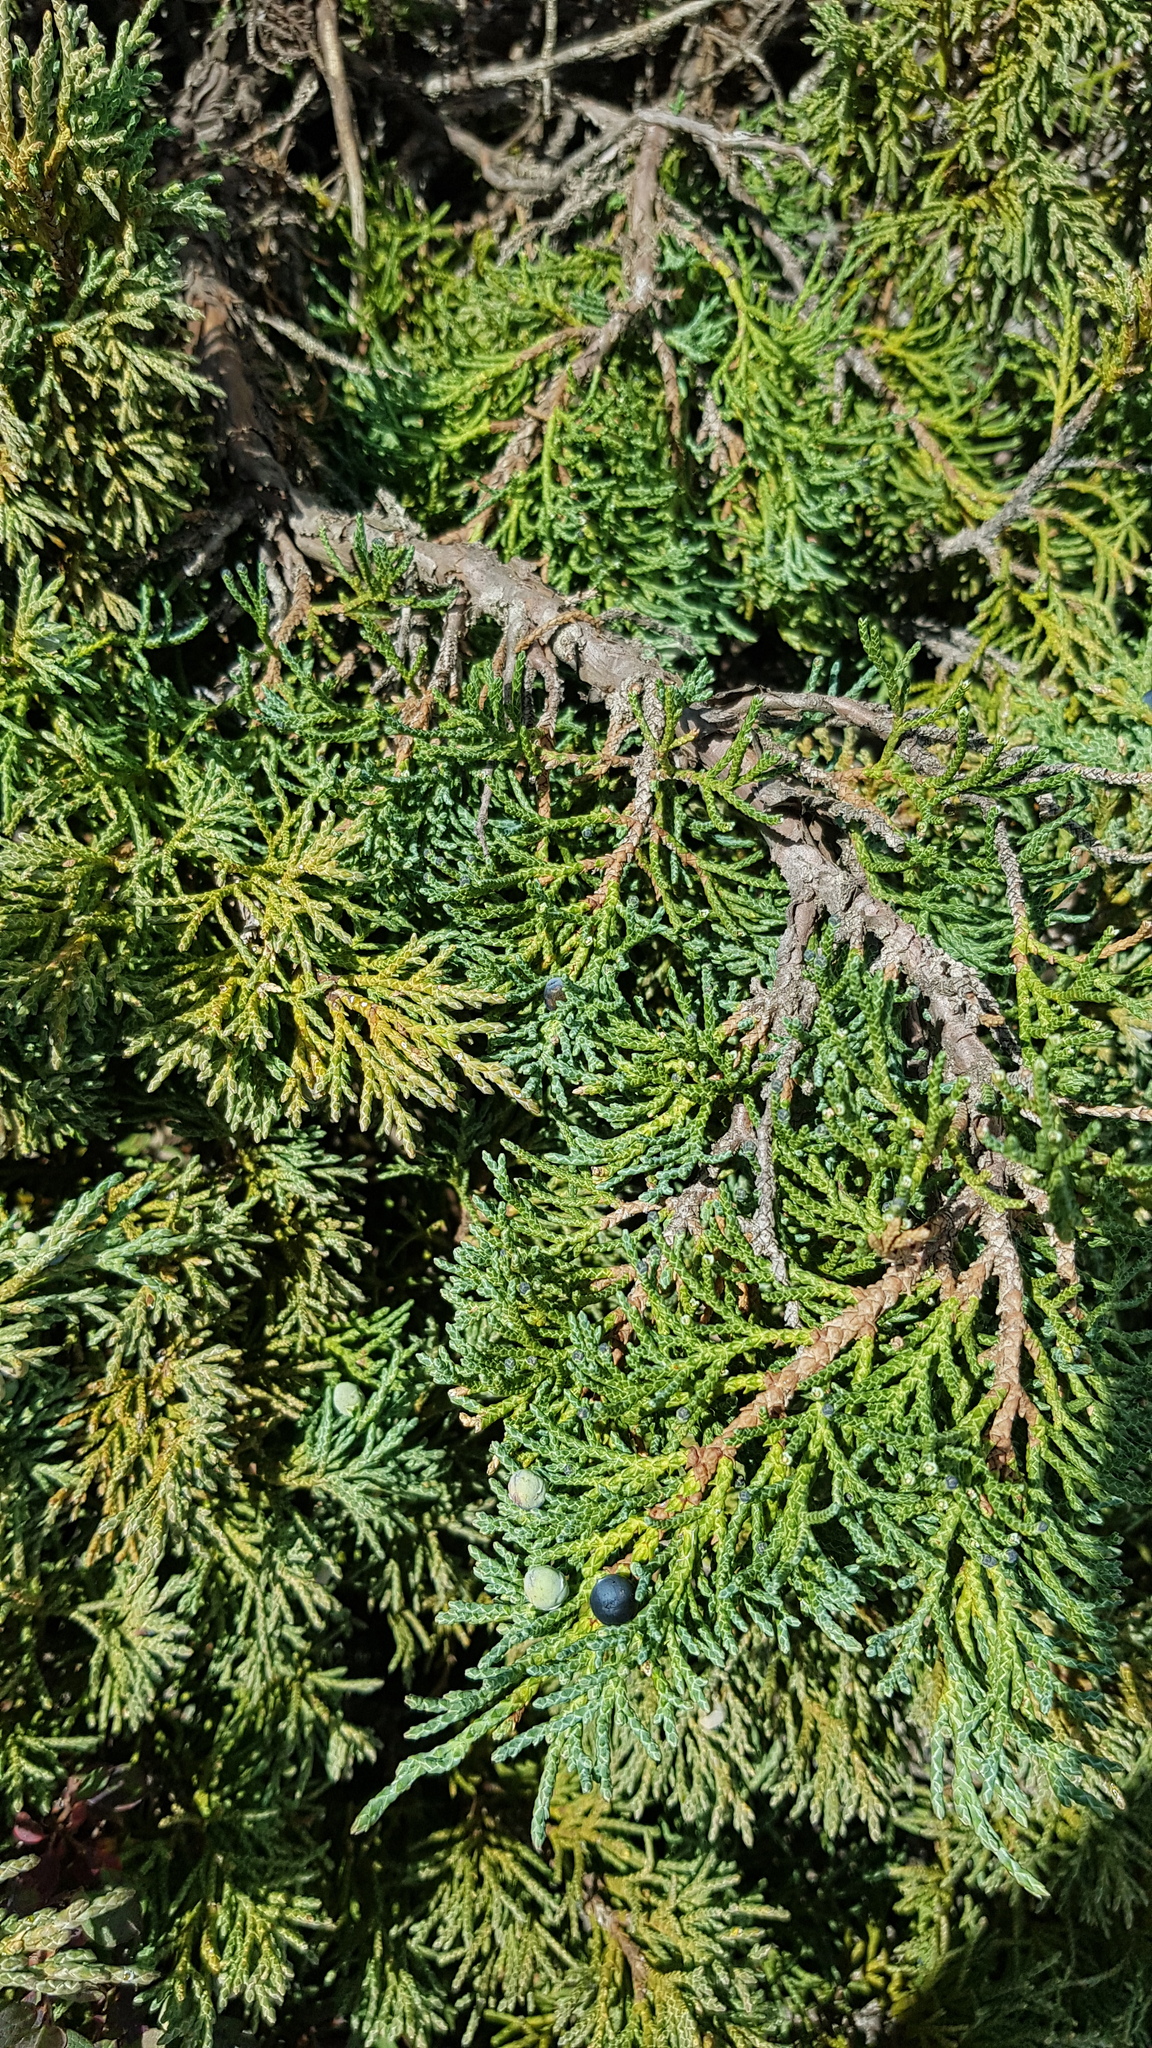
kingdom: Plantae
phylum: Tracheophyta
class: Pinopsida
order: Pinales
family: Cupressaceae
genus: Juniperus
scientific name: Juniperus pseudosabina
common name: Turkestan juniper
